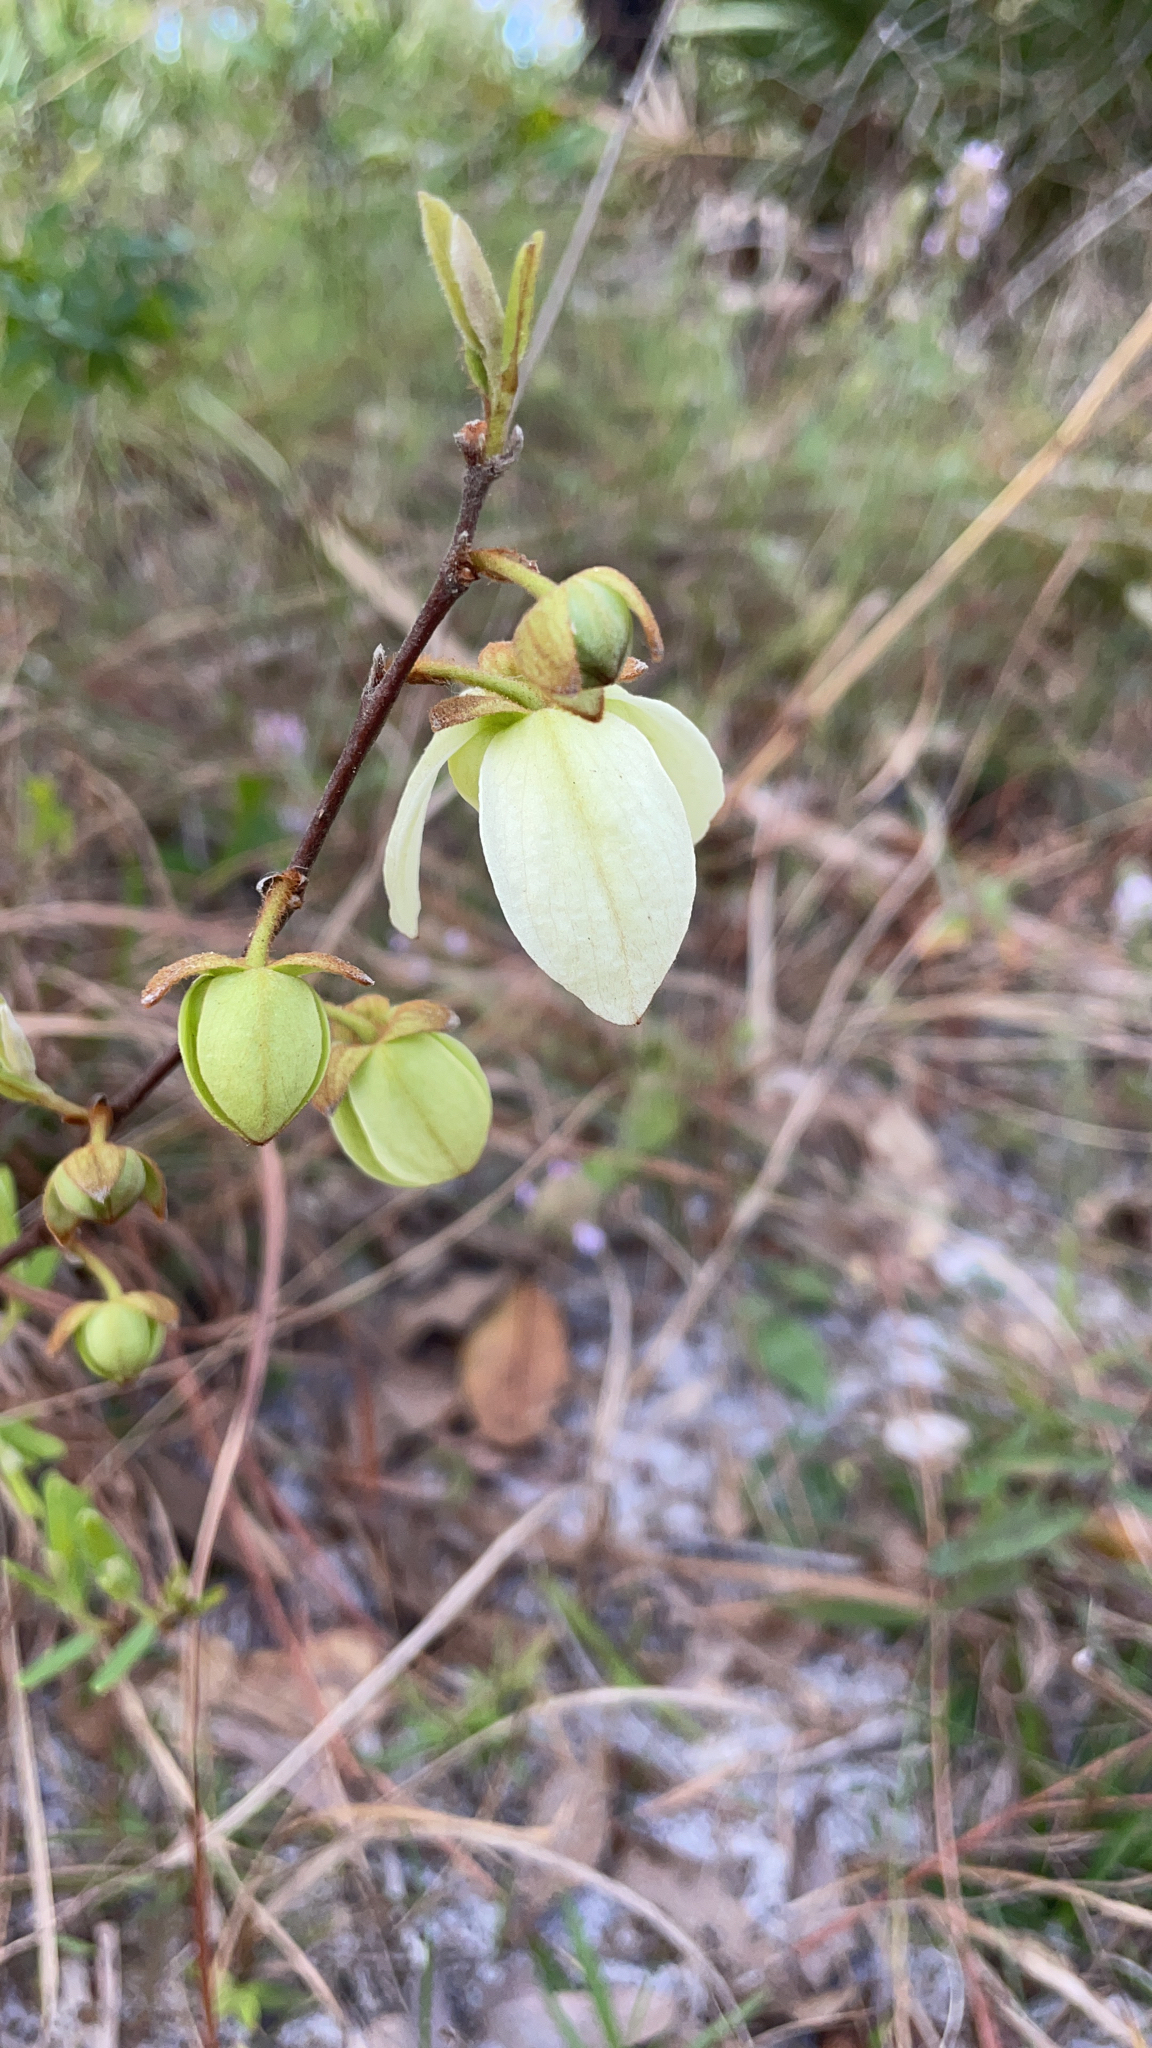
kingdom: Plantae
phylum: Tracheophyta
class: Magnoliopsida
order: Magnoliales
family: Annonaceae
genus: Asimina
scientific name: Asimina reticulata
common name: Flag pawpaw
